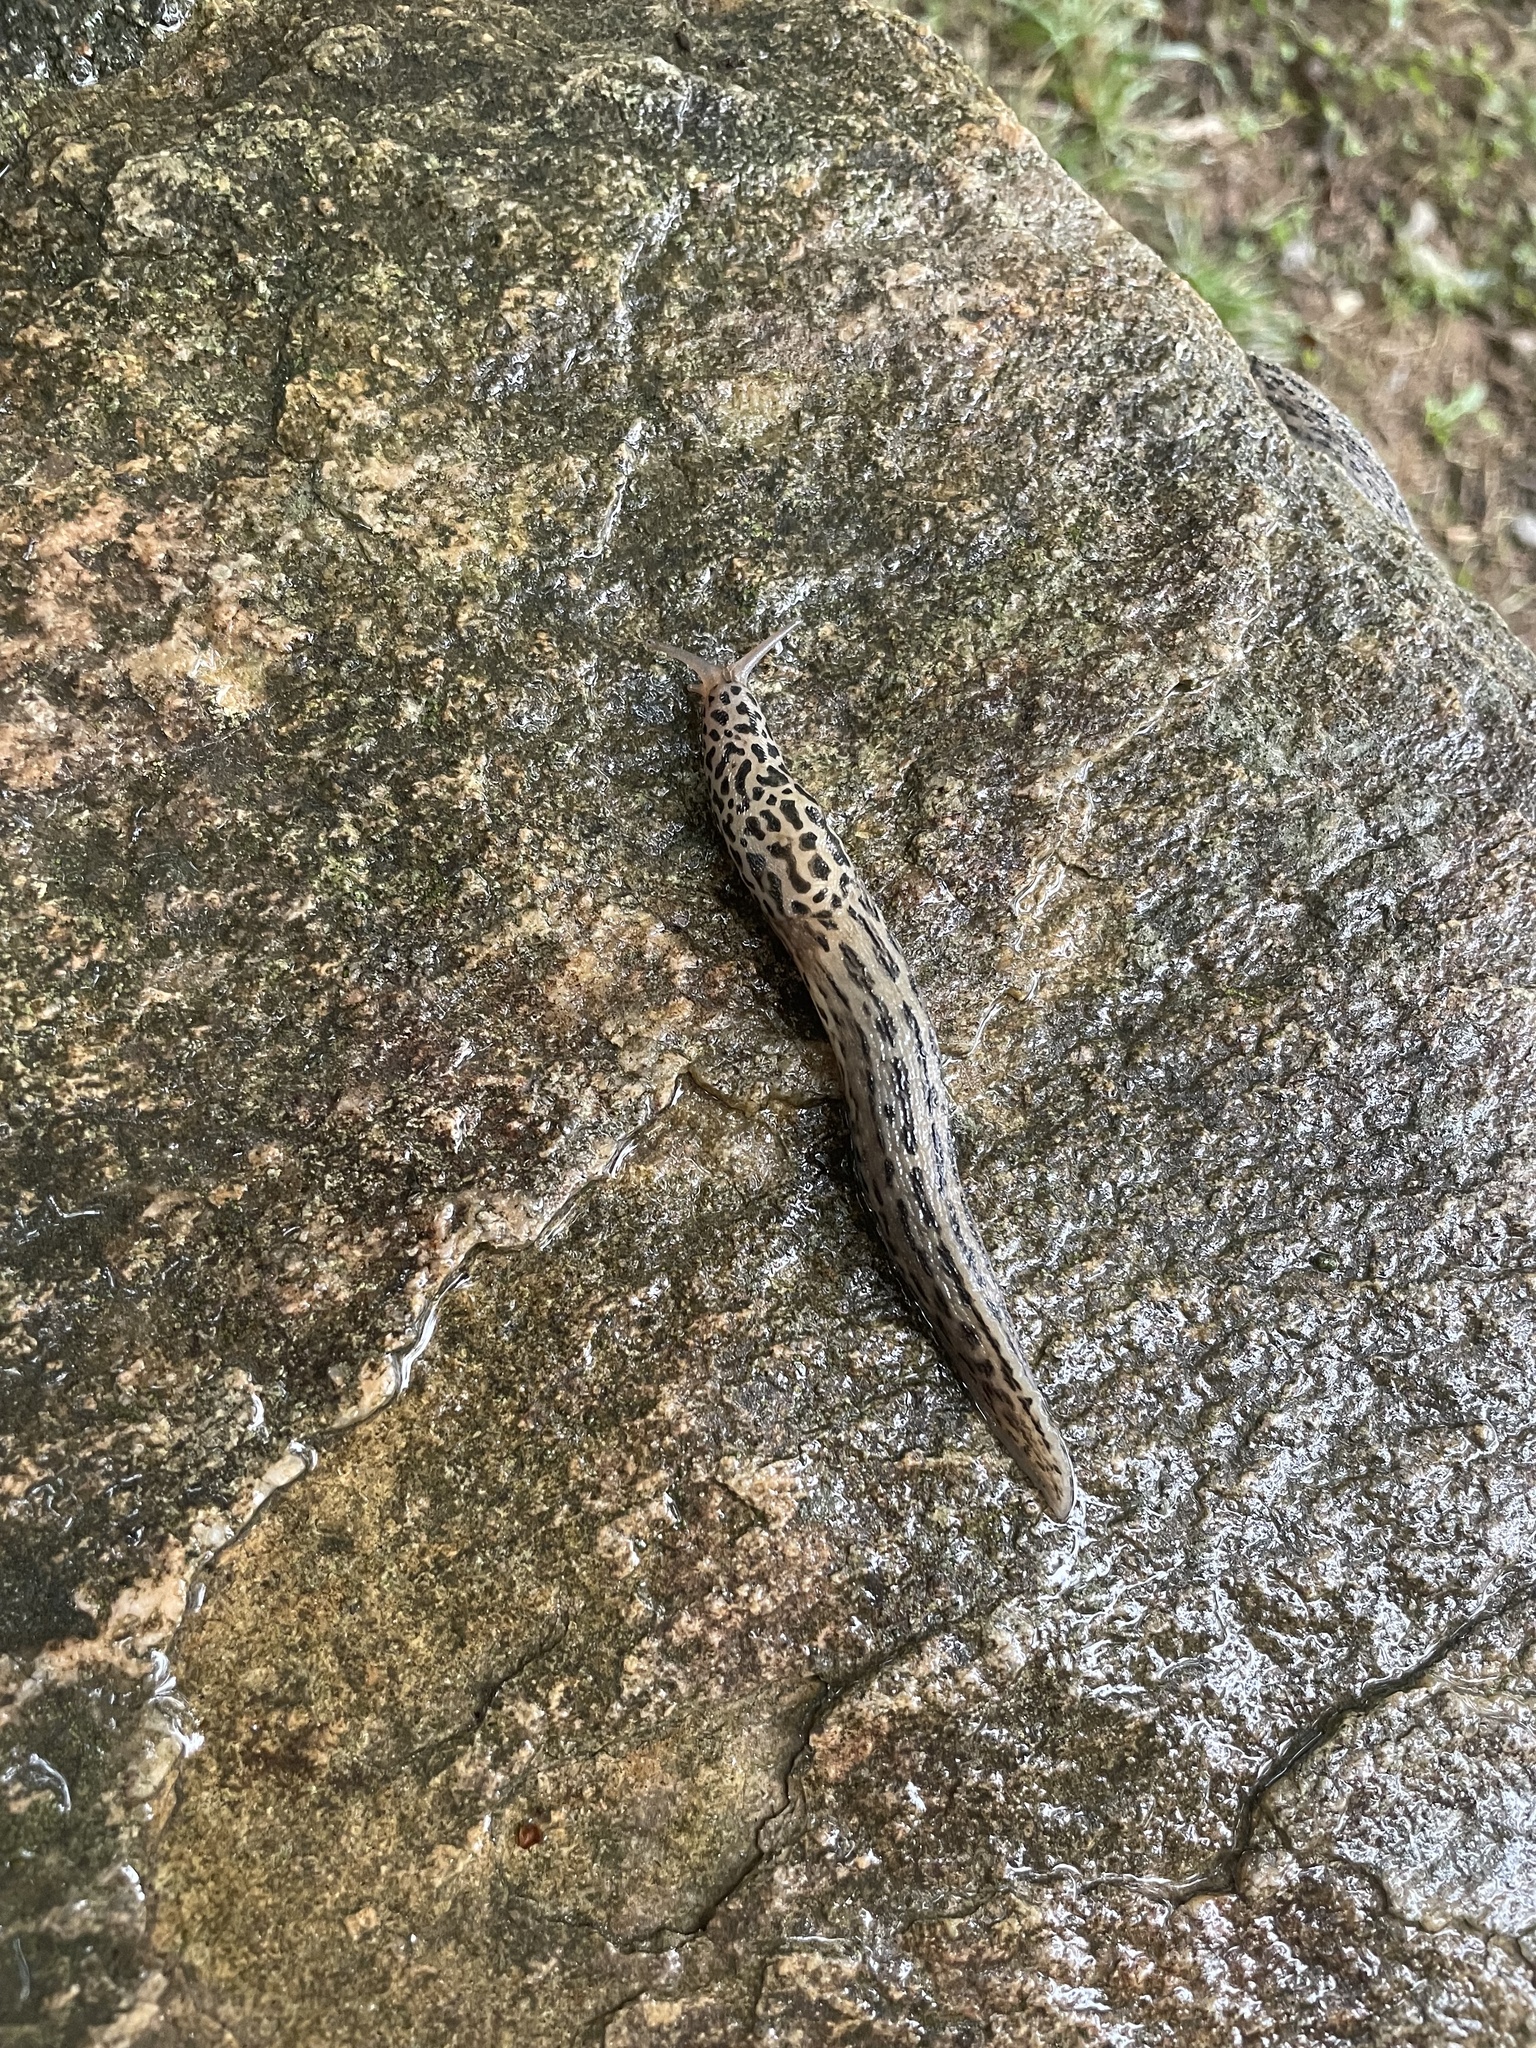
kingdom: Animalia
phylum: Mollusca
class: Gastropoda
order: Stylommatophora
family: Limacidae
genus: Limax
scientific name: Limax maximus
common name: Great grey slug
